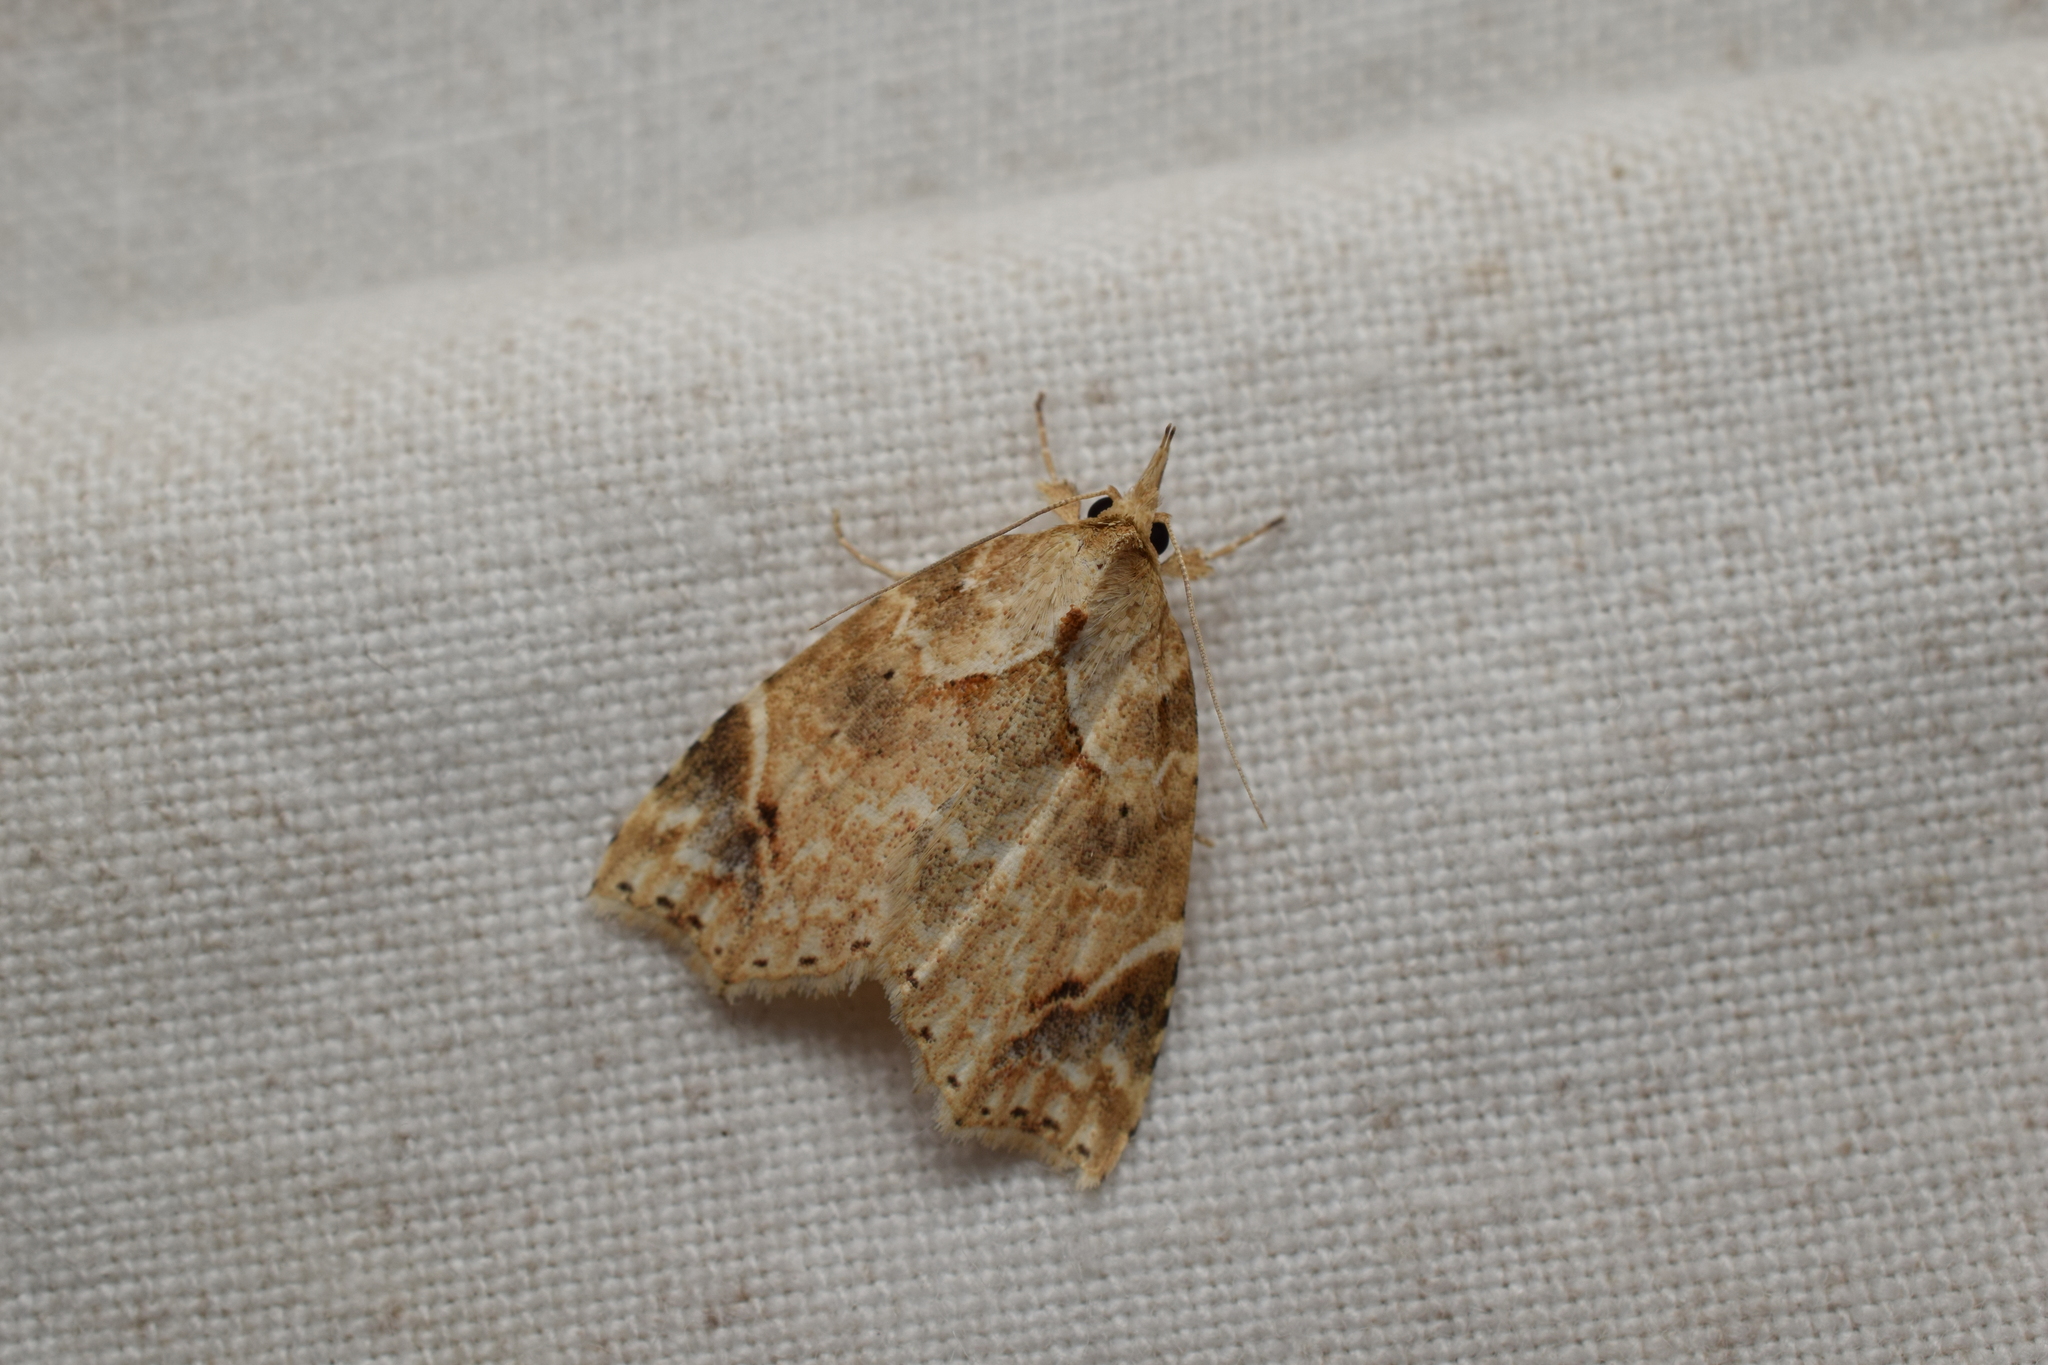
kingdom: Animalia
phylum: Arthropoda
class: Insecta
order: Lepidoptera
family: Erebidae
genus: Olulis
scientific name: Olulis
